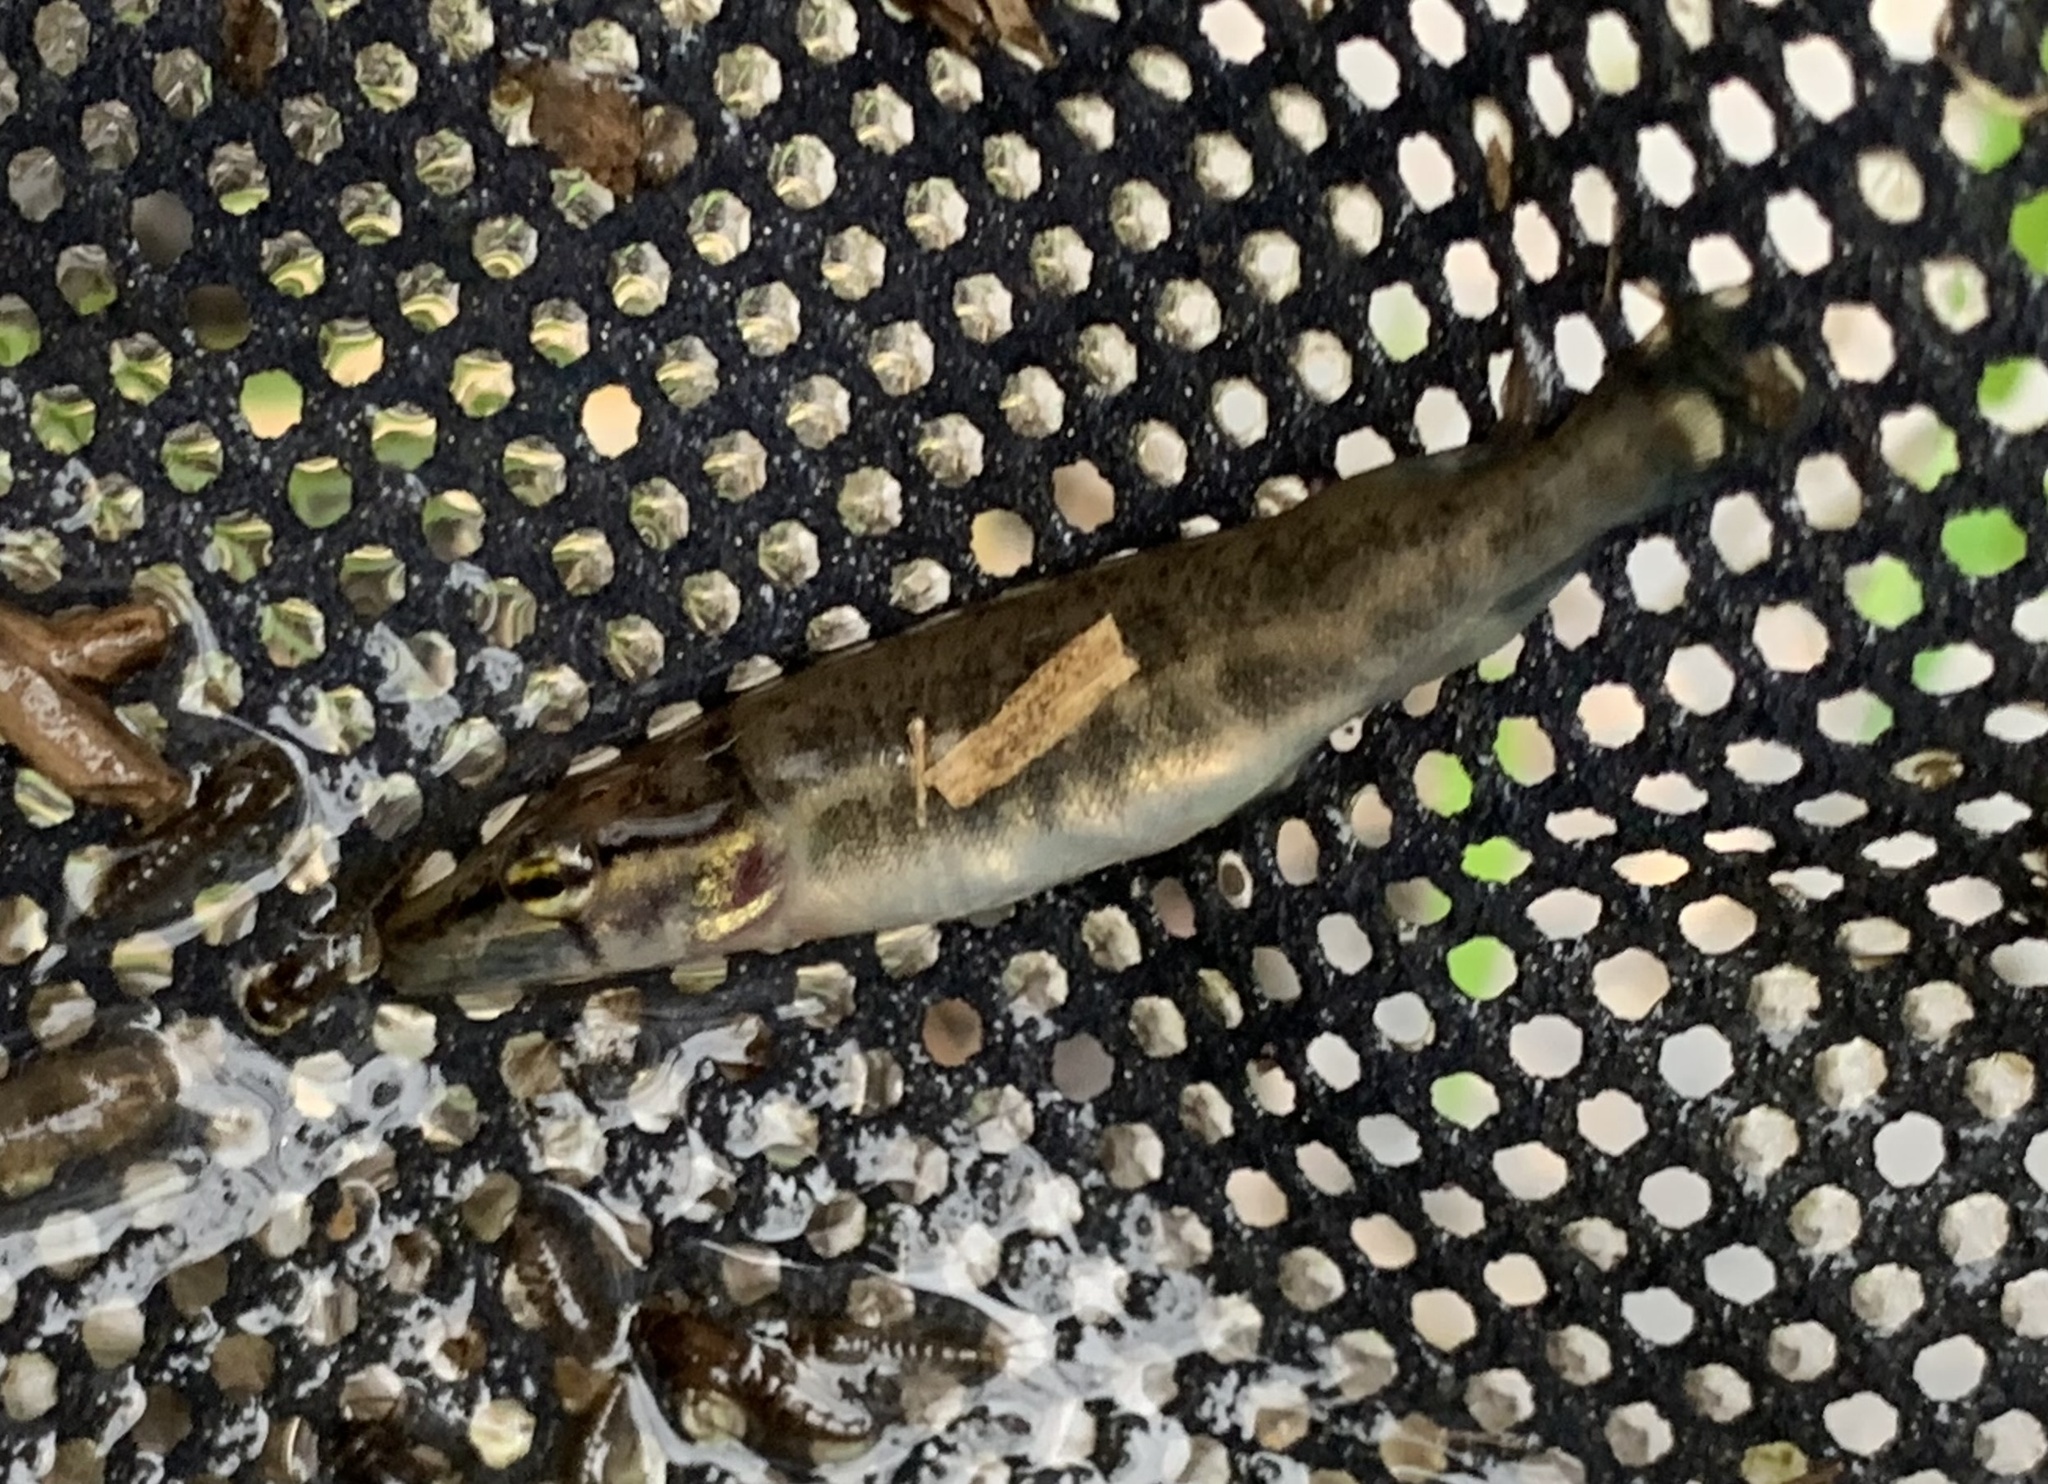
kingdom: Animalia
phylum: Chordata
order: Esociformes
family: Esocidae
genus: Esox
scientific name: Esox americanus
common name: Redfin pickerel
